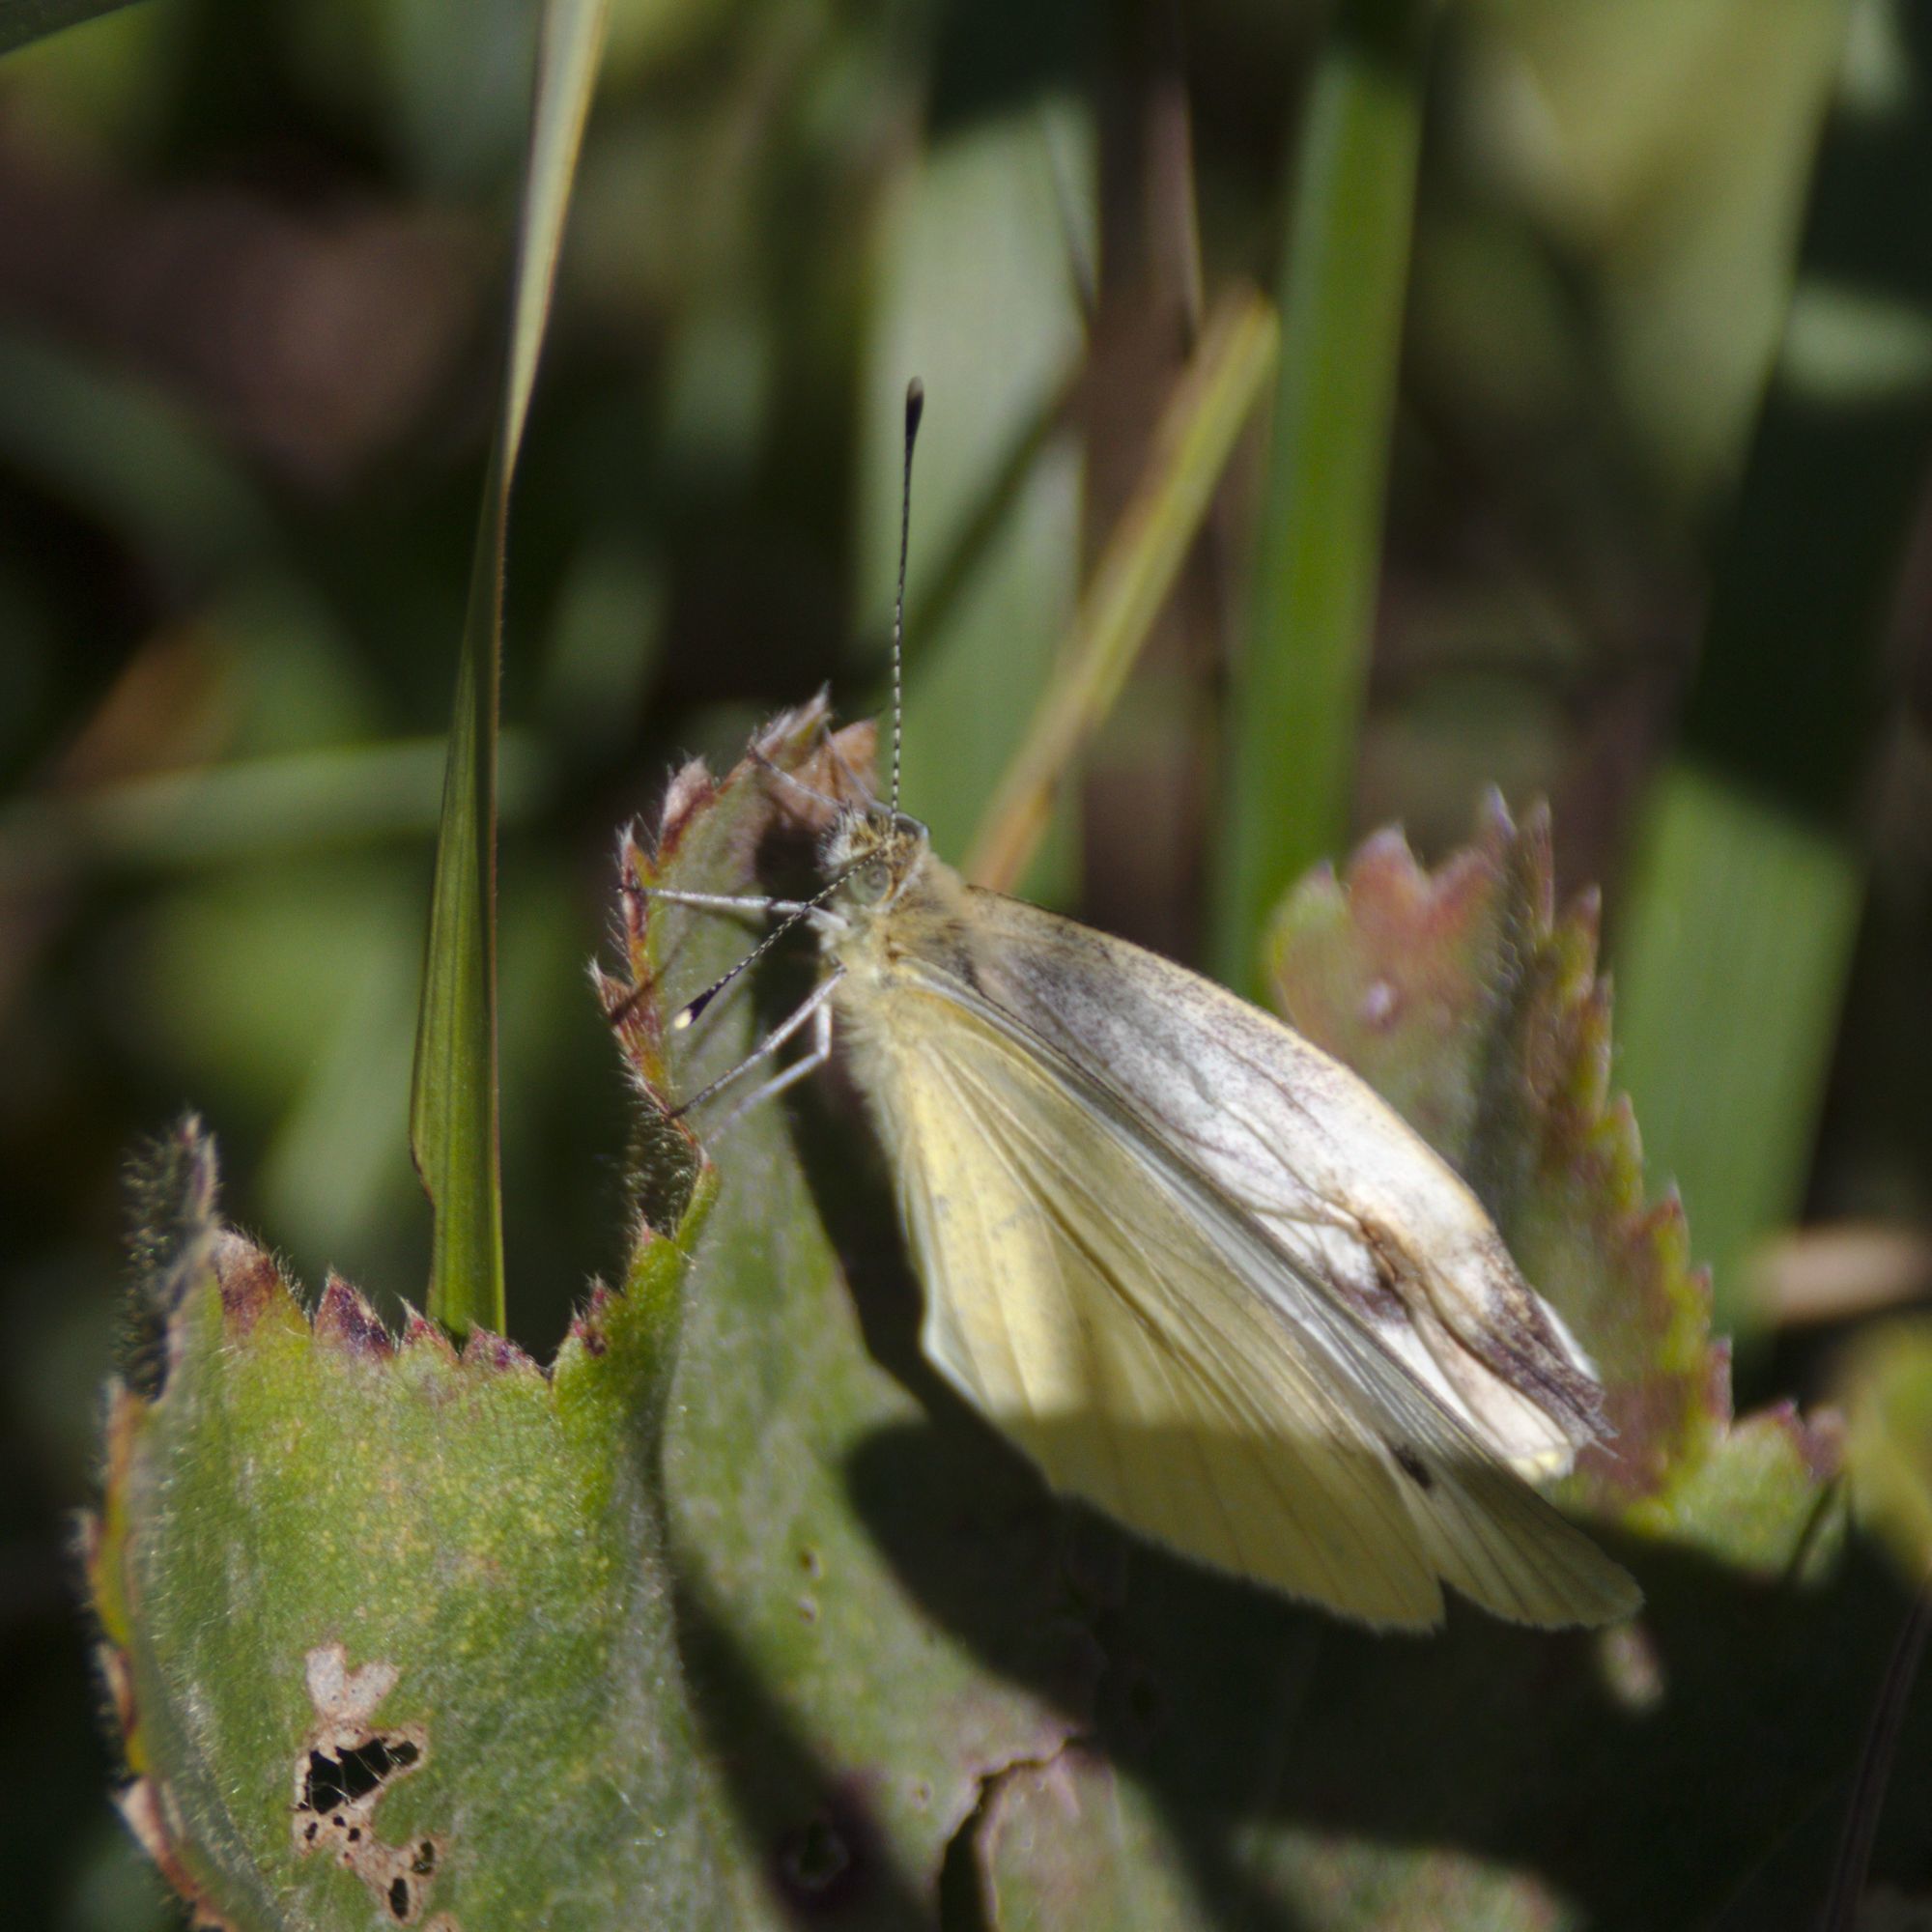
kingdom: Animalia
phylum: Arthropoda
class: Insecta
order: Lepidoptera
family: Pieridae
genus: Pieris
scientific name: Pieris napi
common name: Green-veined white
